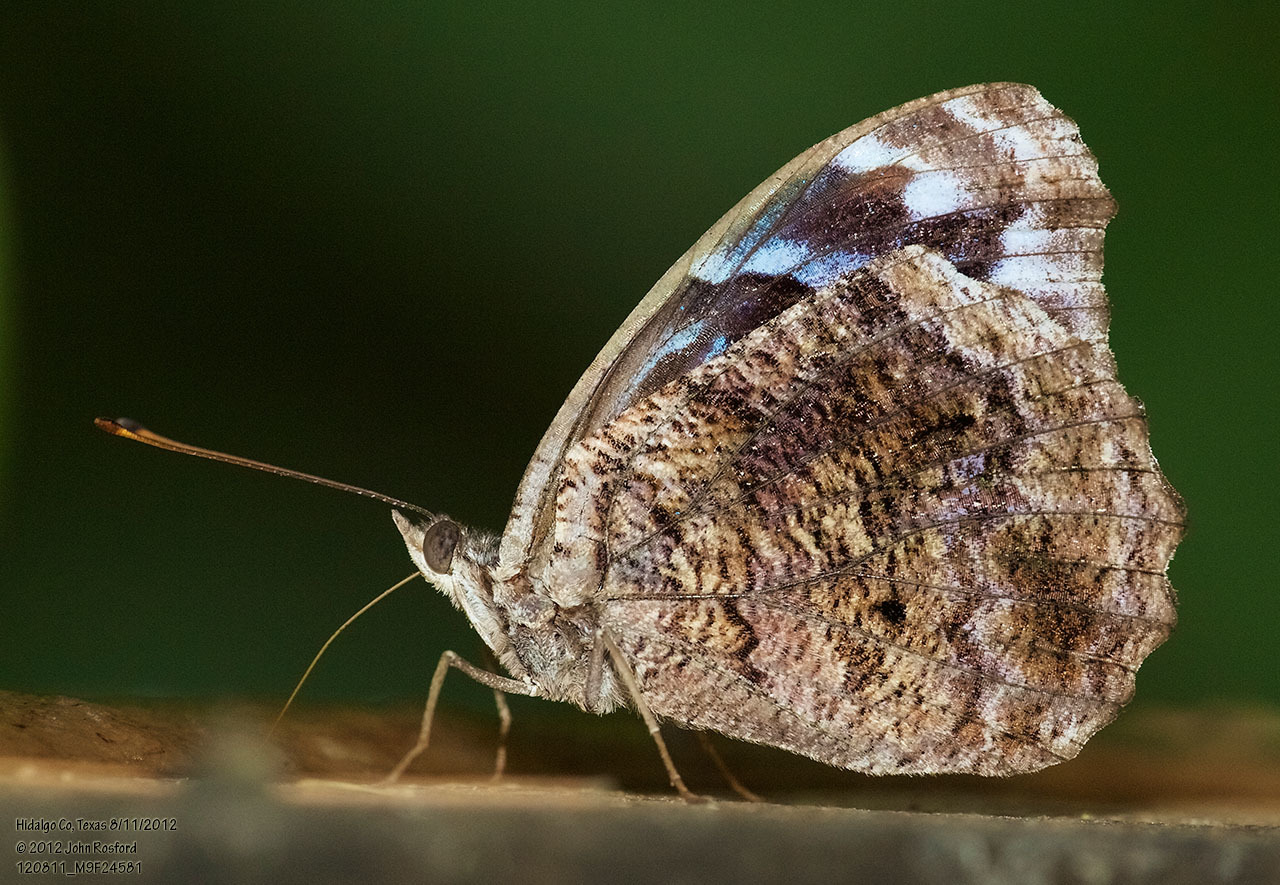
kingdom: Animalia
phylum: Arthropoda
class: Insecta
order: Lepidoptera
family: Nymphalidae
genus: Myscelia
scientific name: Myscelia ethusa
